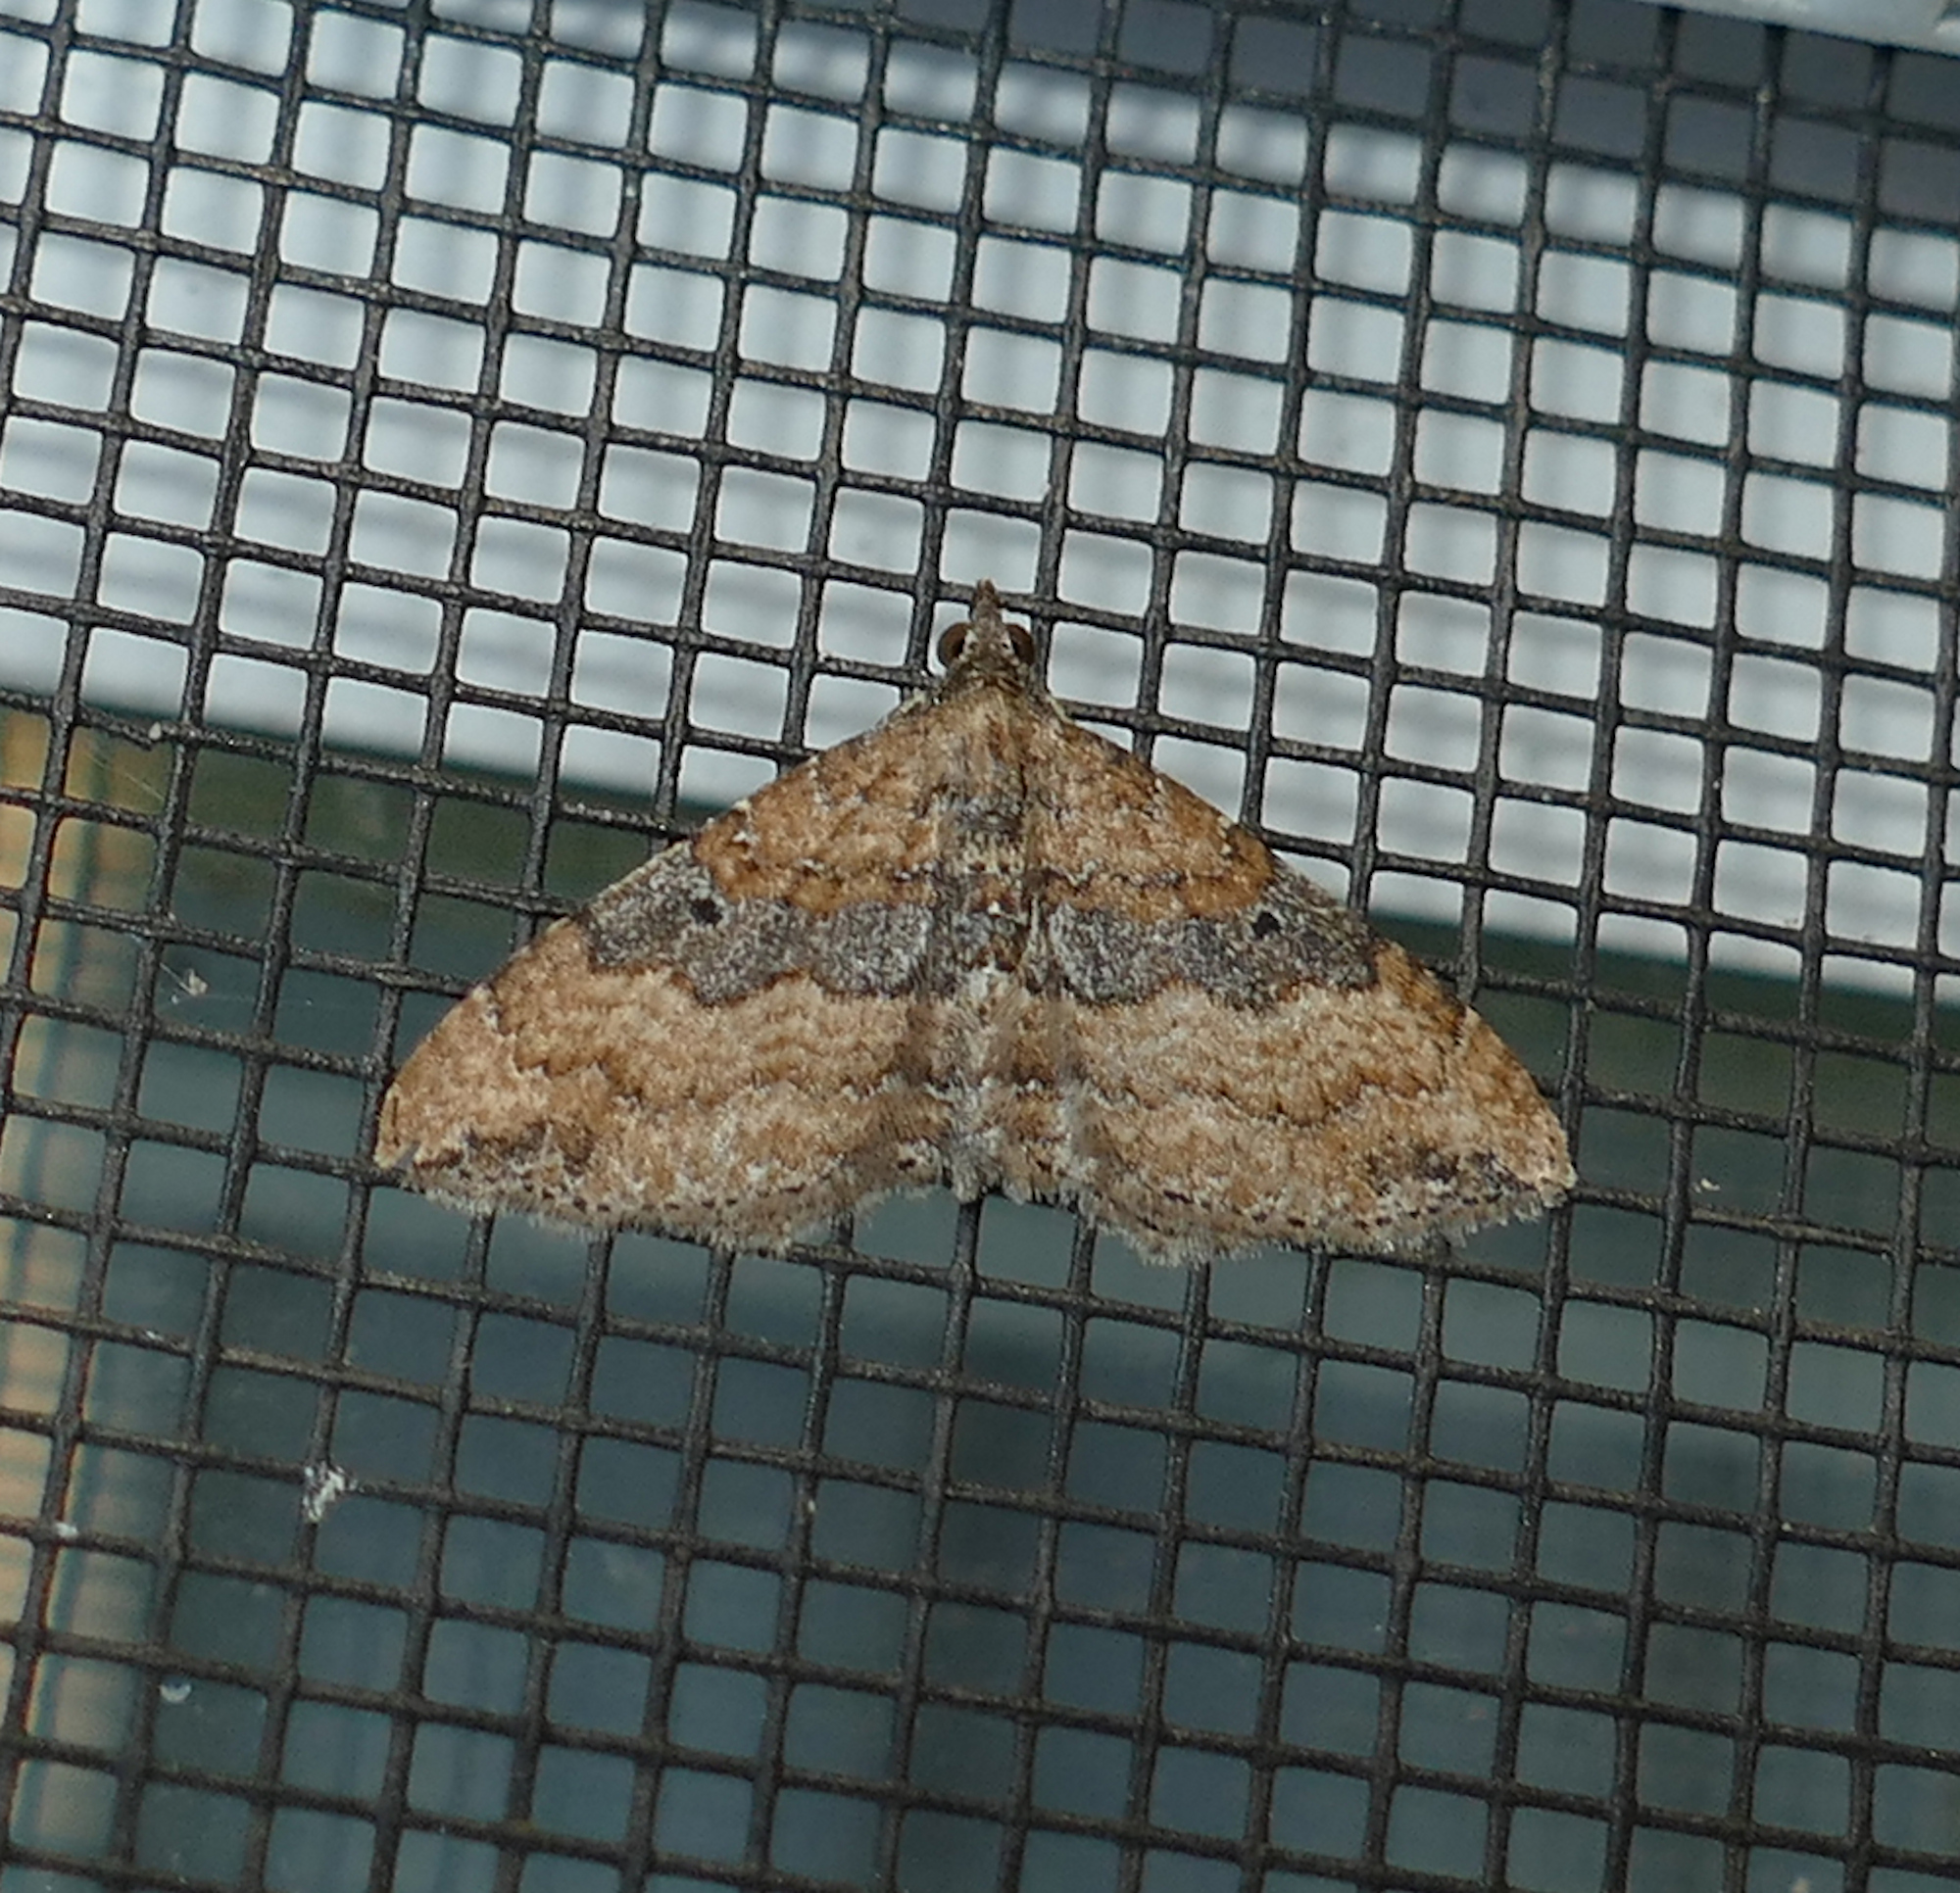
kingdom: Animalia
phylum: Arthropoda
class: Insecta
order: Lepidoptera
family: Geometridae
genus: Orthonama
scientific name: Orthonama obstipata
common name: The gem
